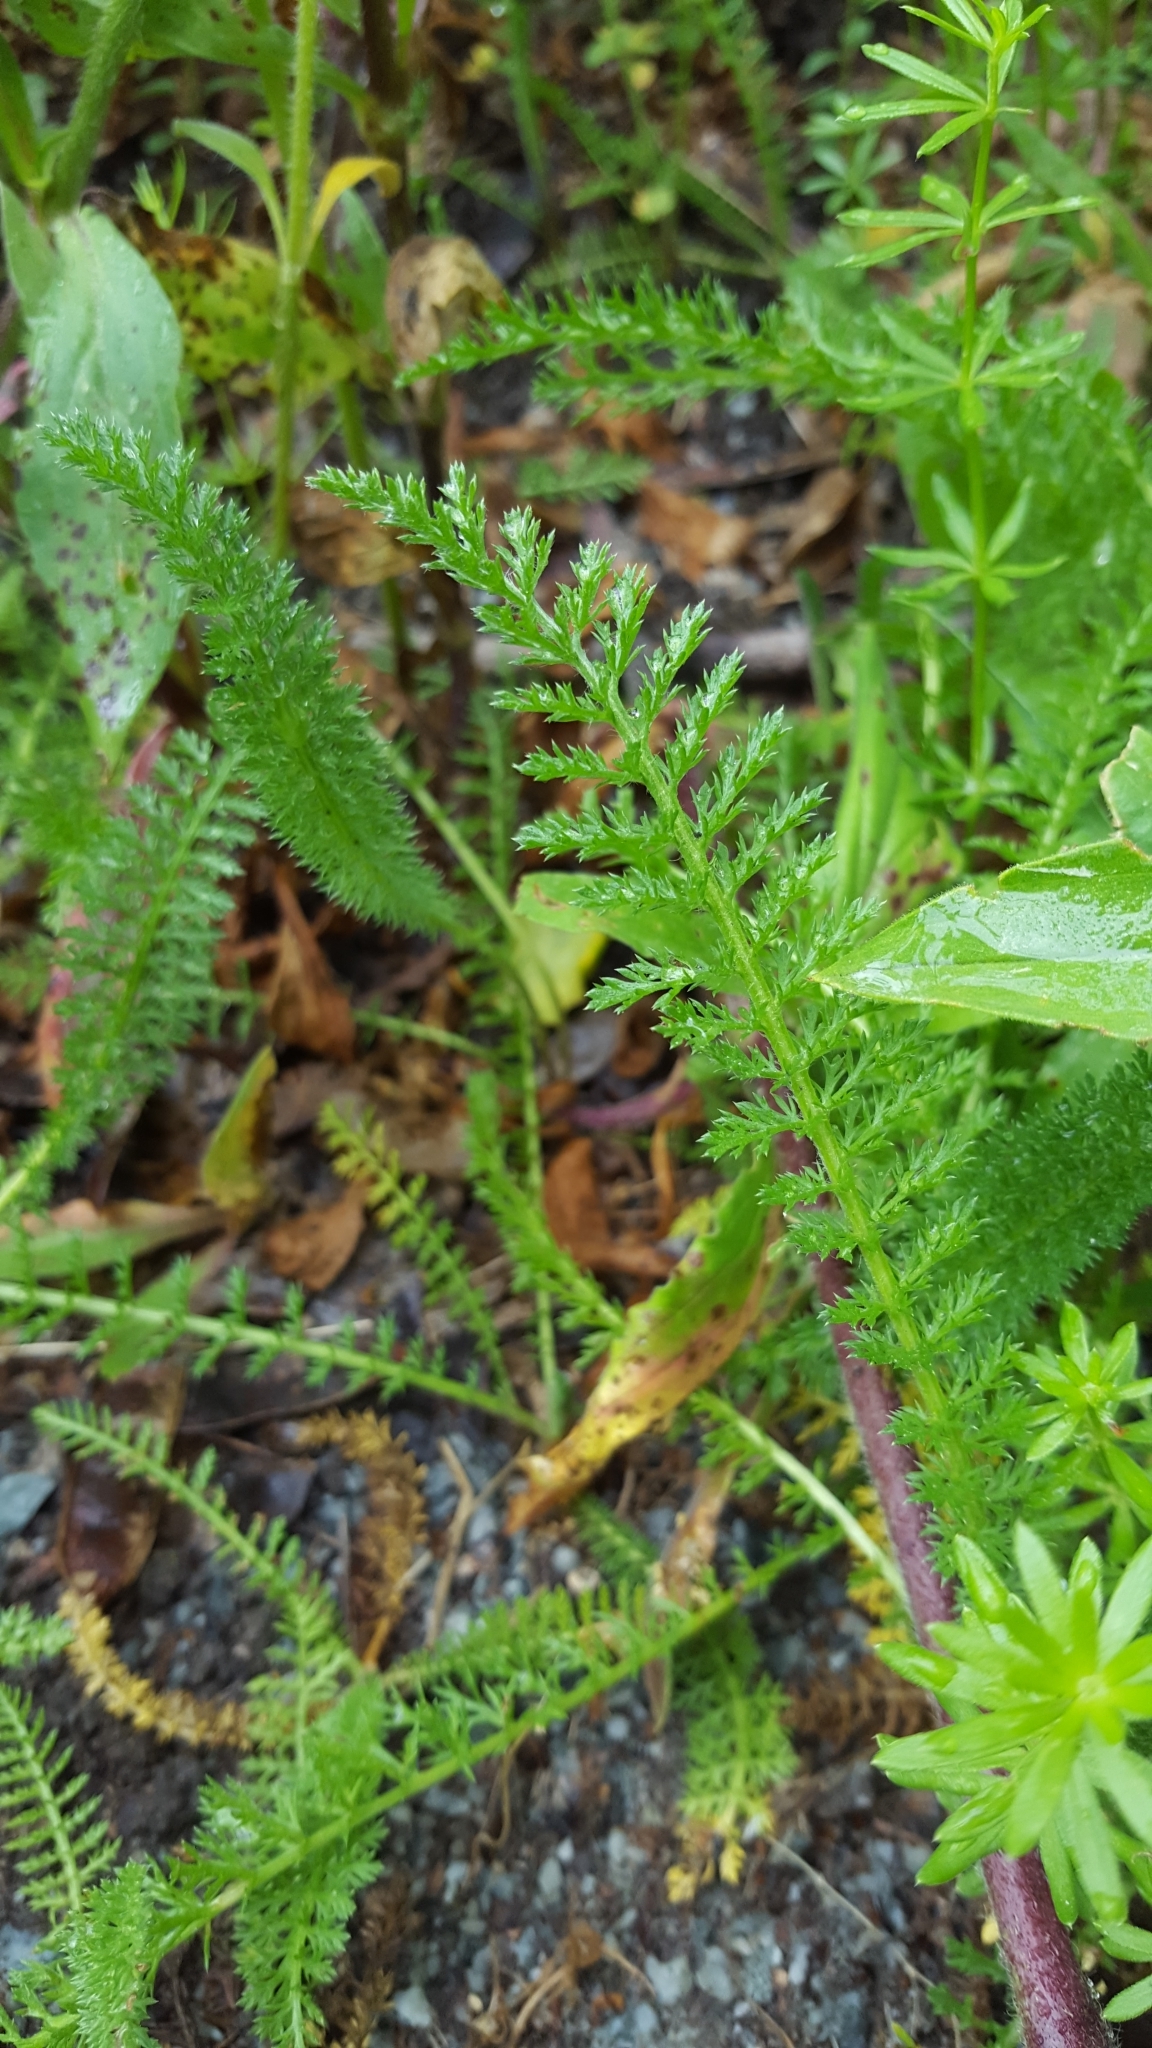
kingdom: Plantae
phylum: Tracheophyta
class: Magnoliopsida
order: Asterales
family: Asteraceae
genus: Achillea
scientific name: Achillea millefolium
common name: Yarrow
